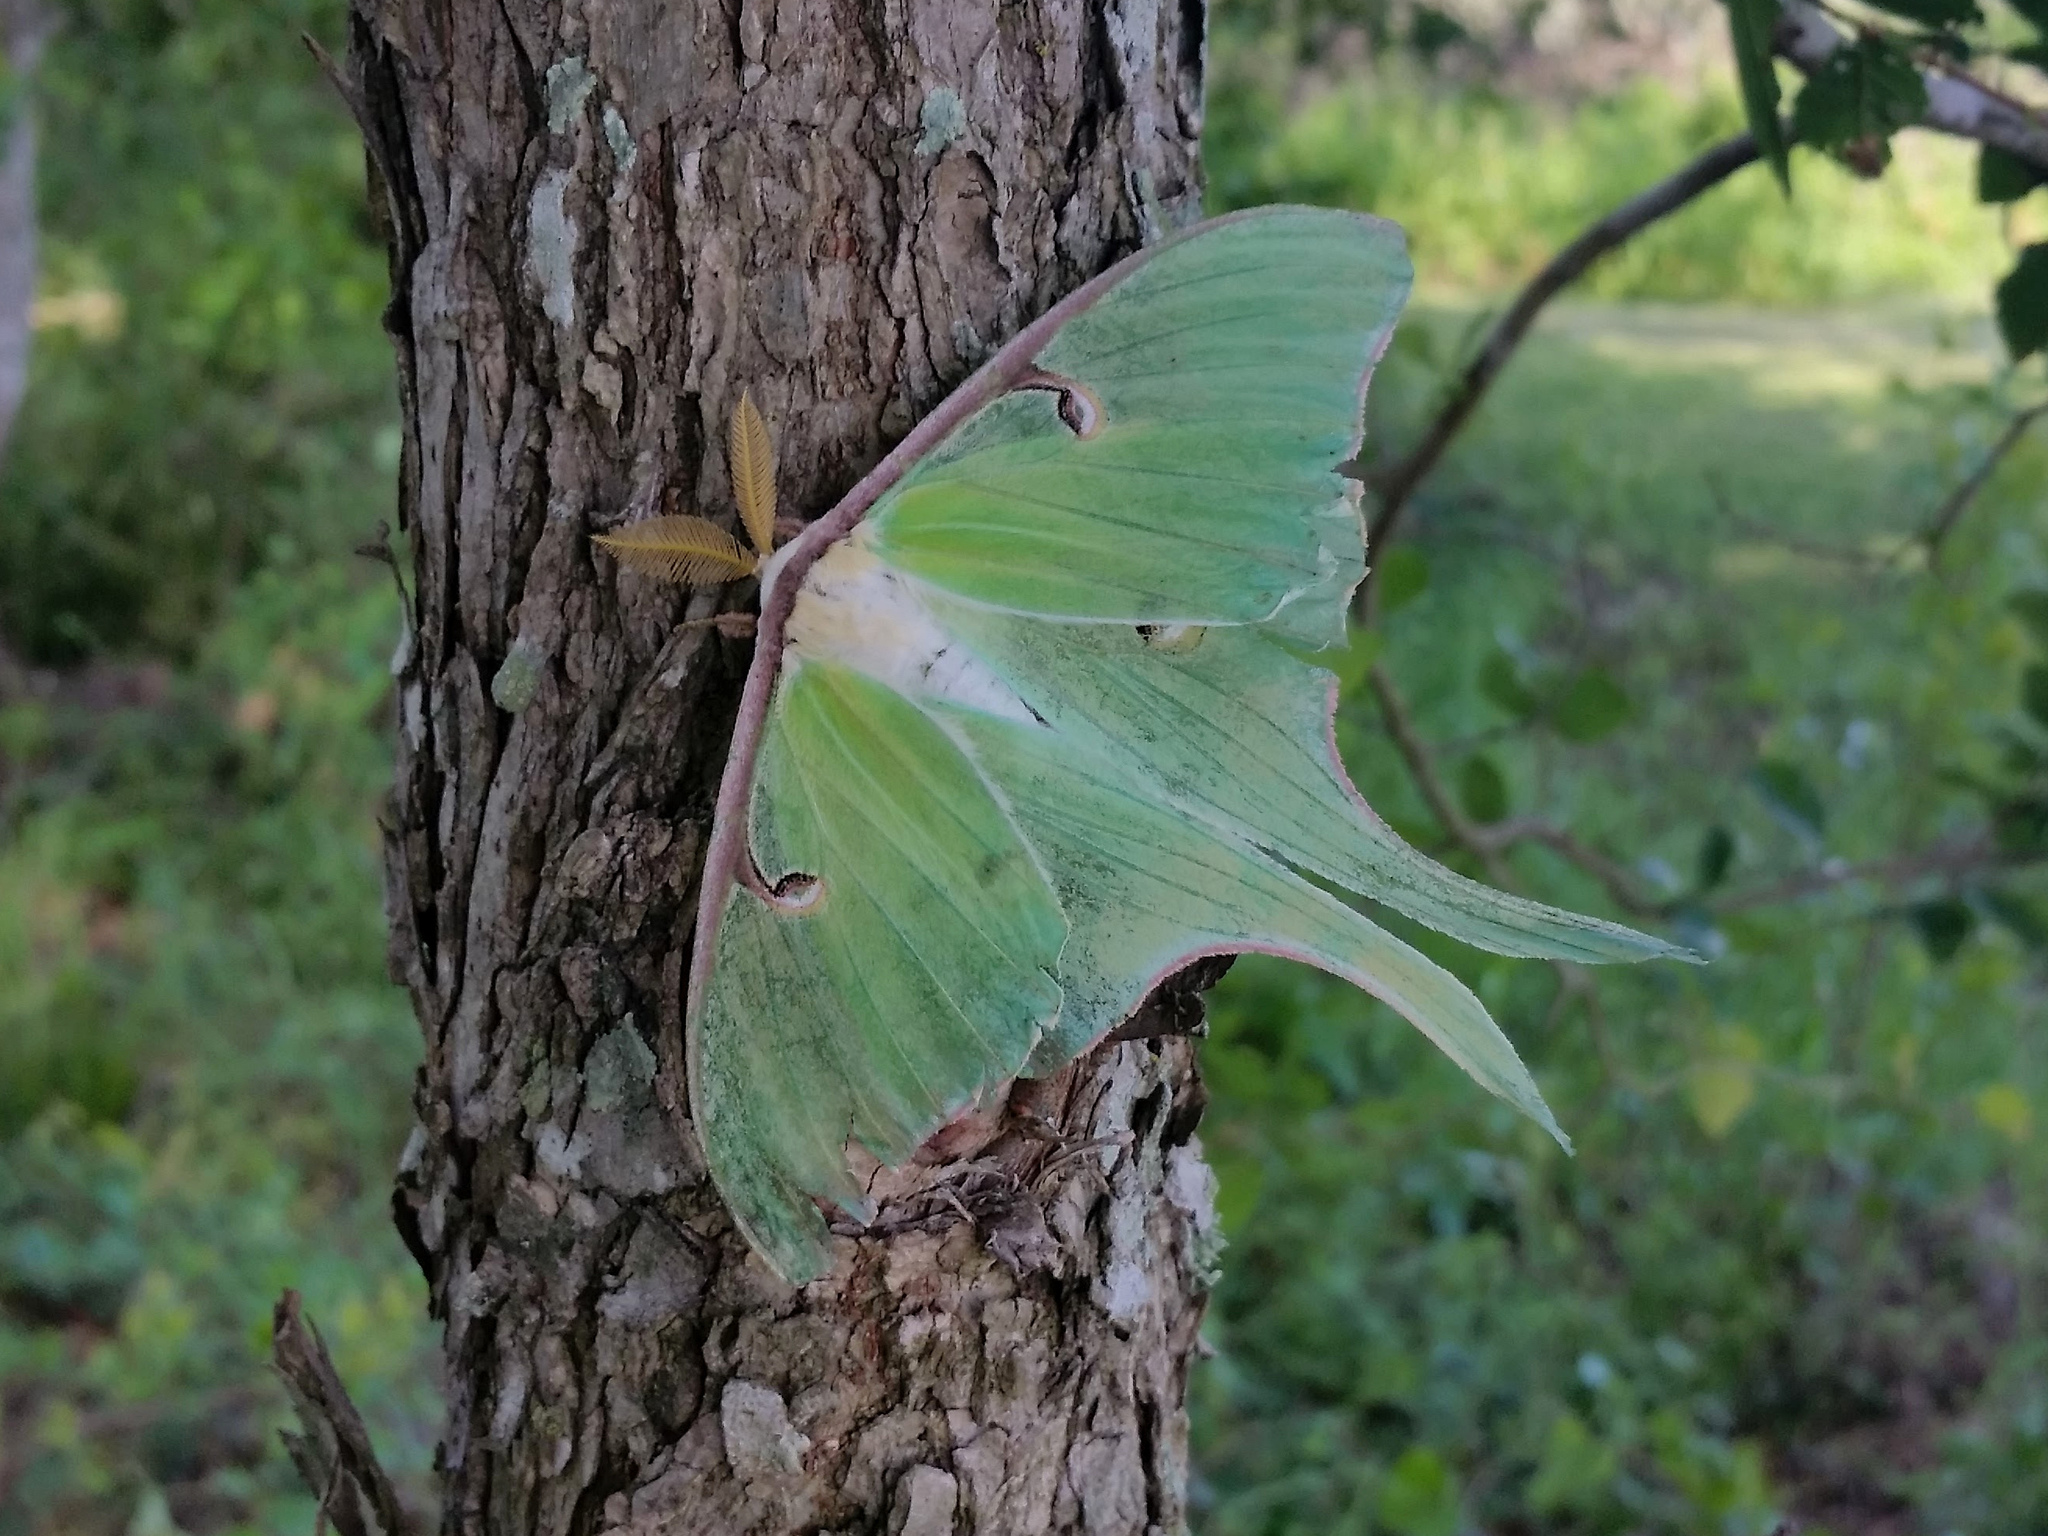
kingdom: Animalia
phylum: Arthropoda
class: Insecta
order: Lepidoptera
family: Saturniidae
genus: Actias
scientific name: Actias luna
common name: Luna moth
